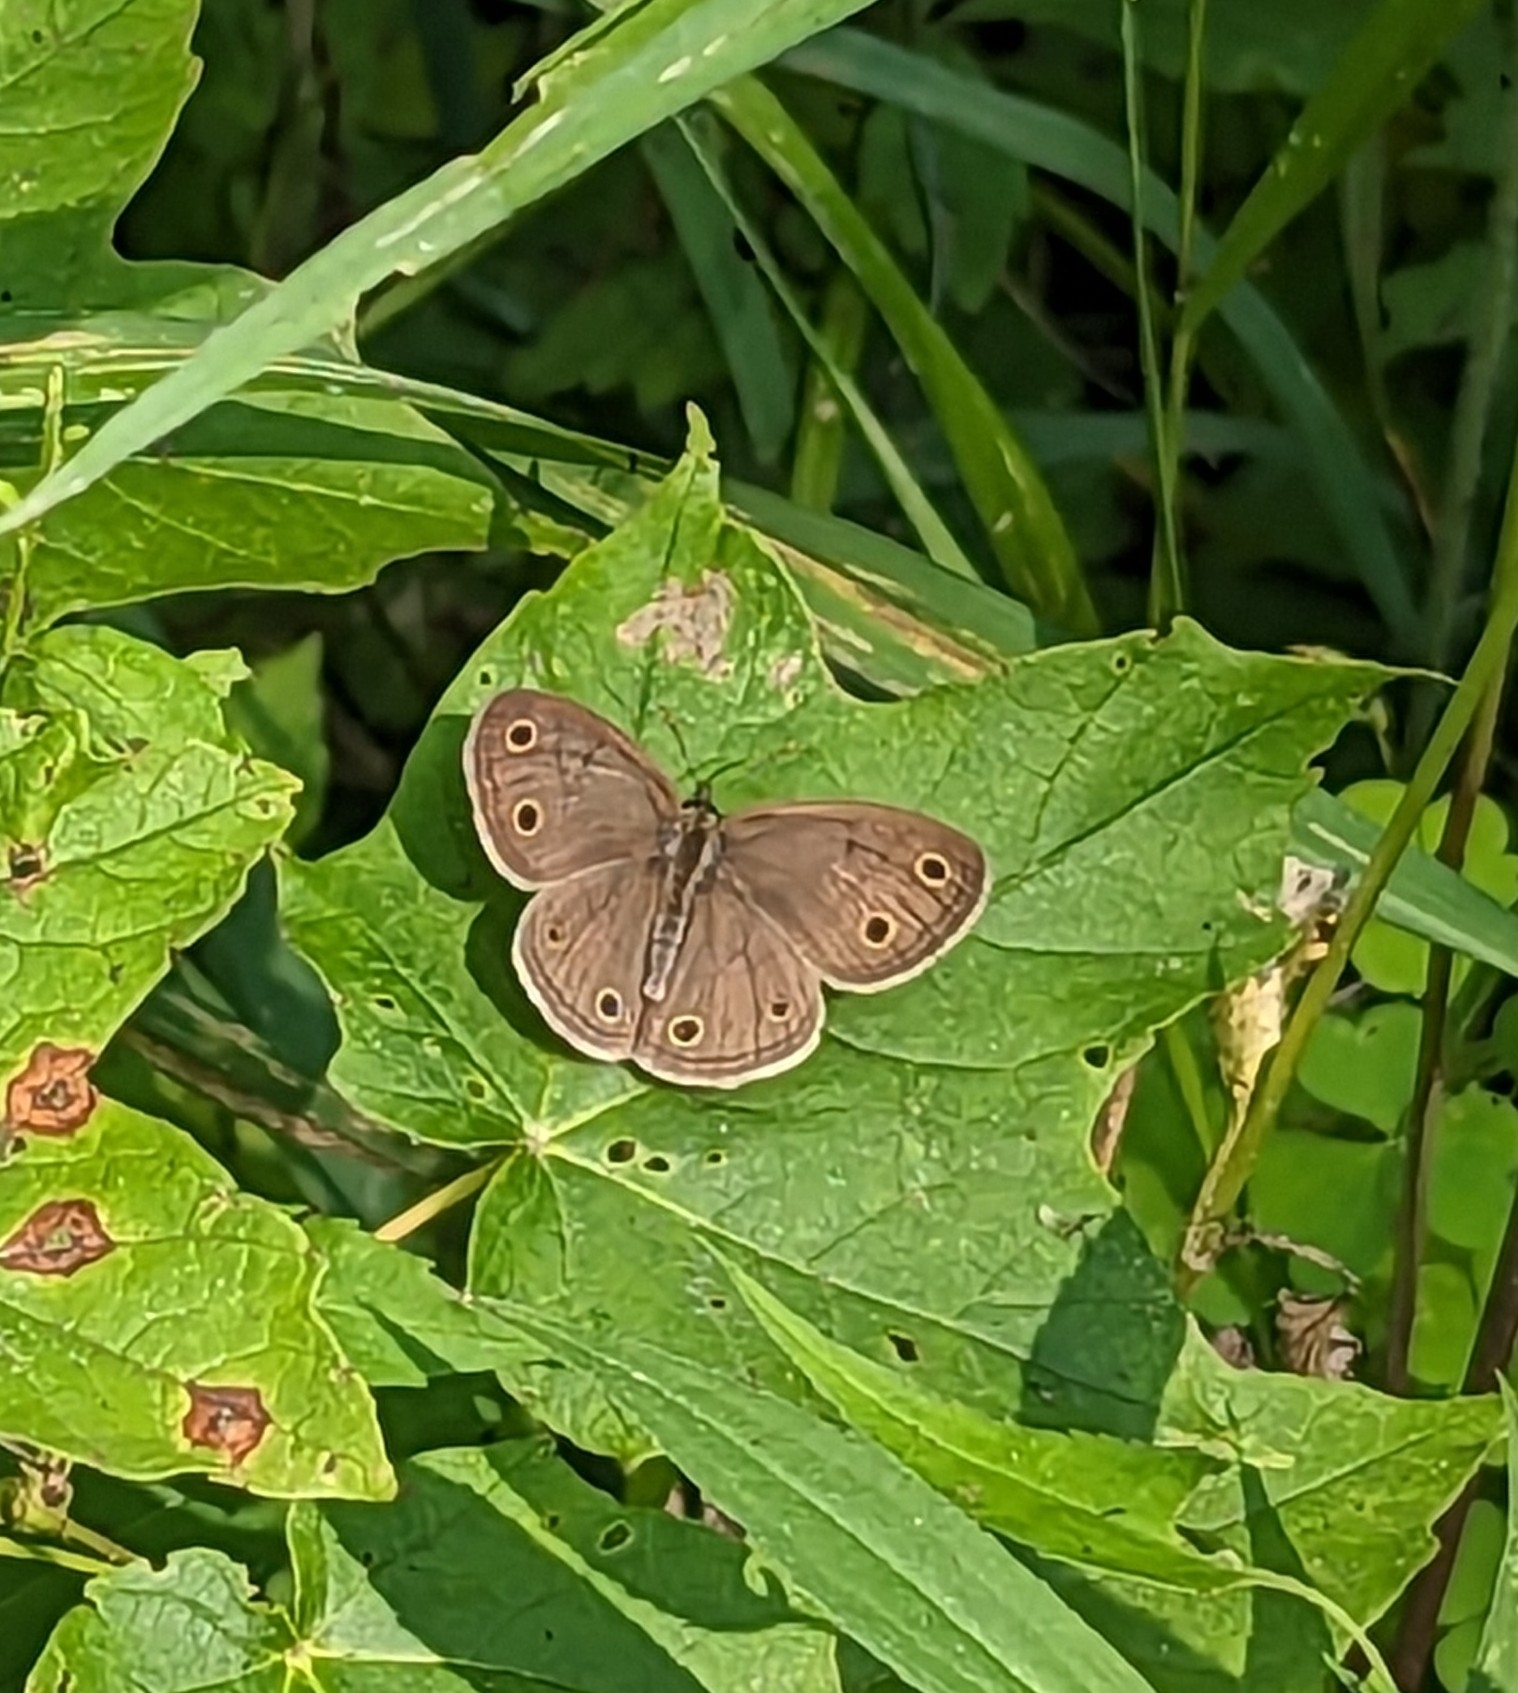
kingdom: Animalia
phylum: Arthropoda
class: Insecta
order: Lepidoptera
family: Nymphalidae
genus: Euptychia
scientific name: Euptychia cymela
